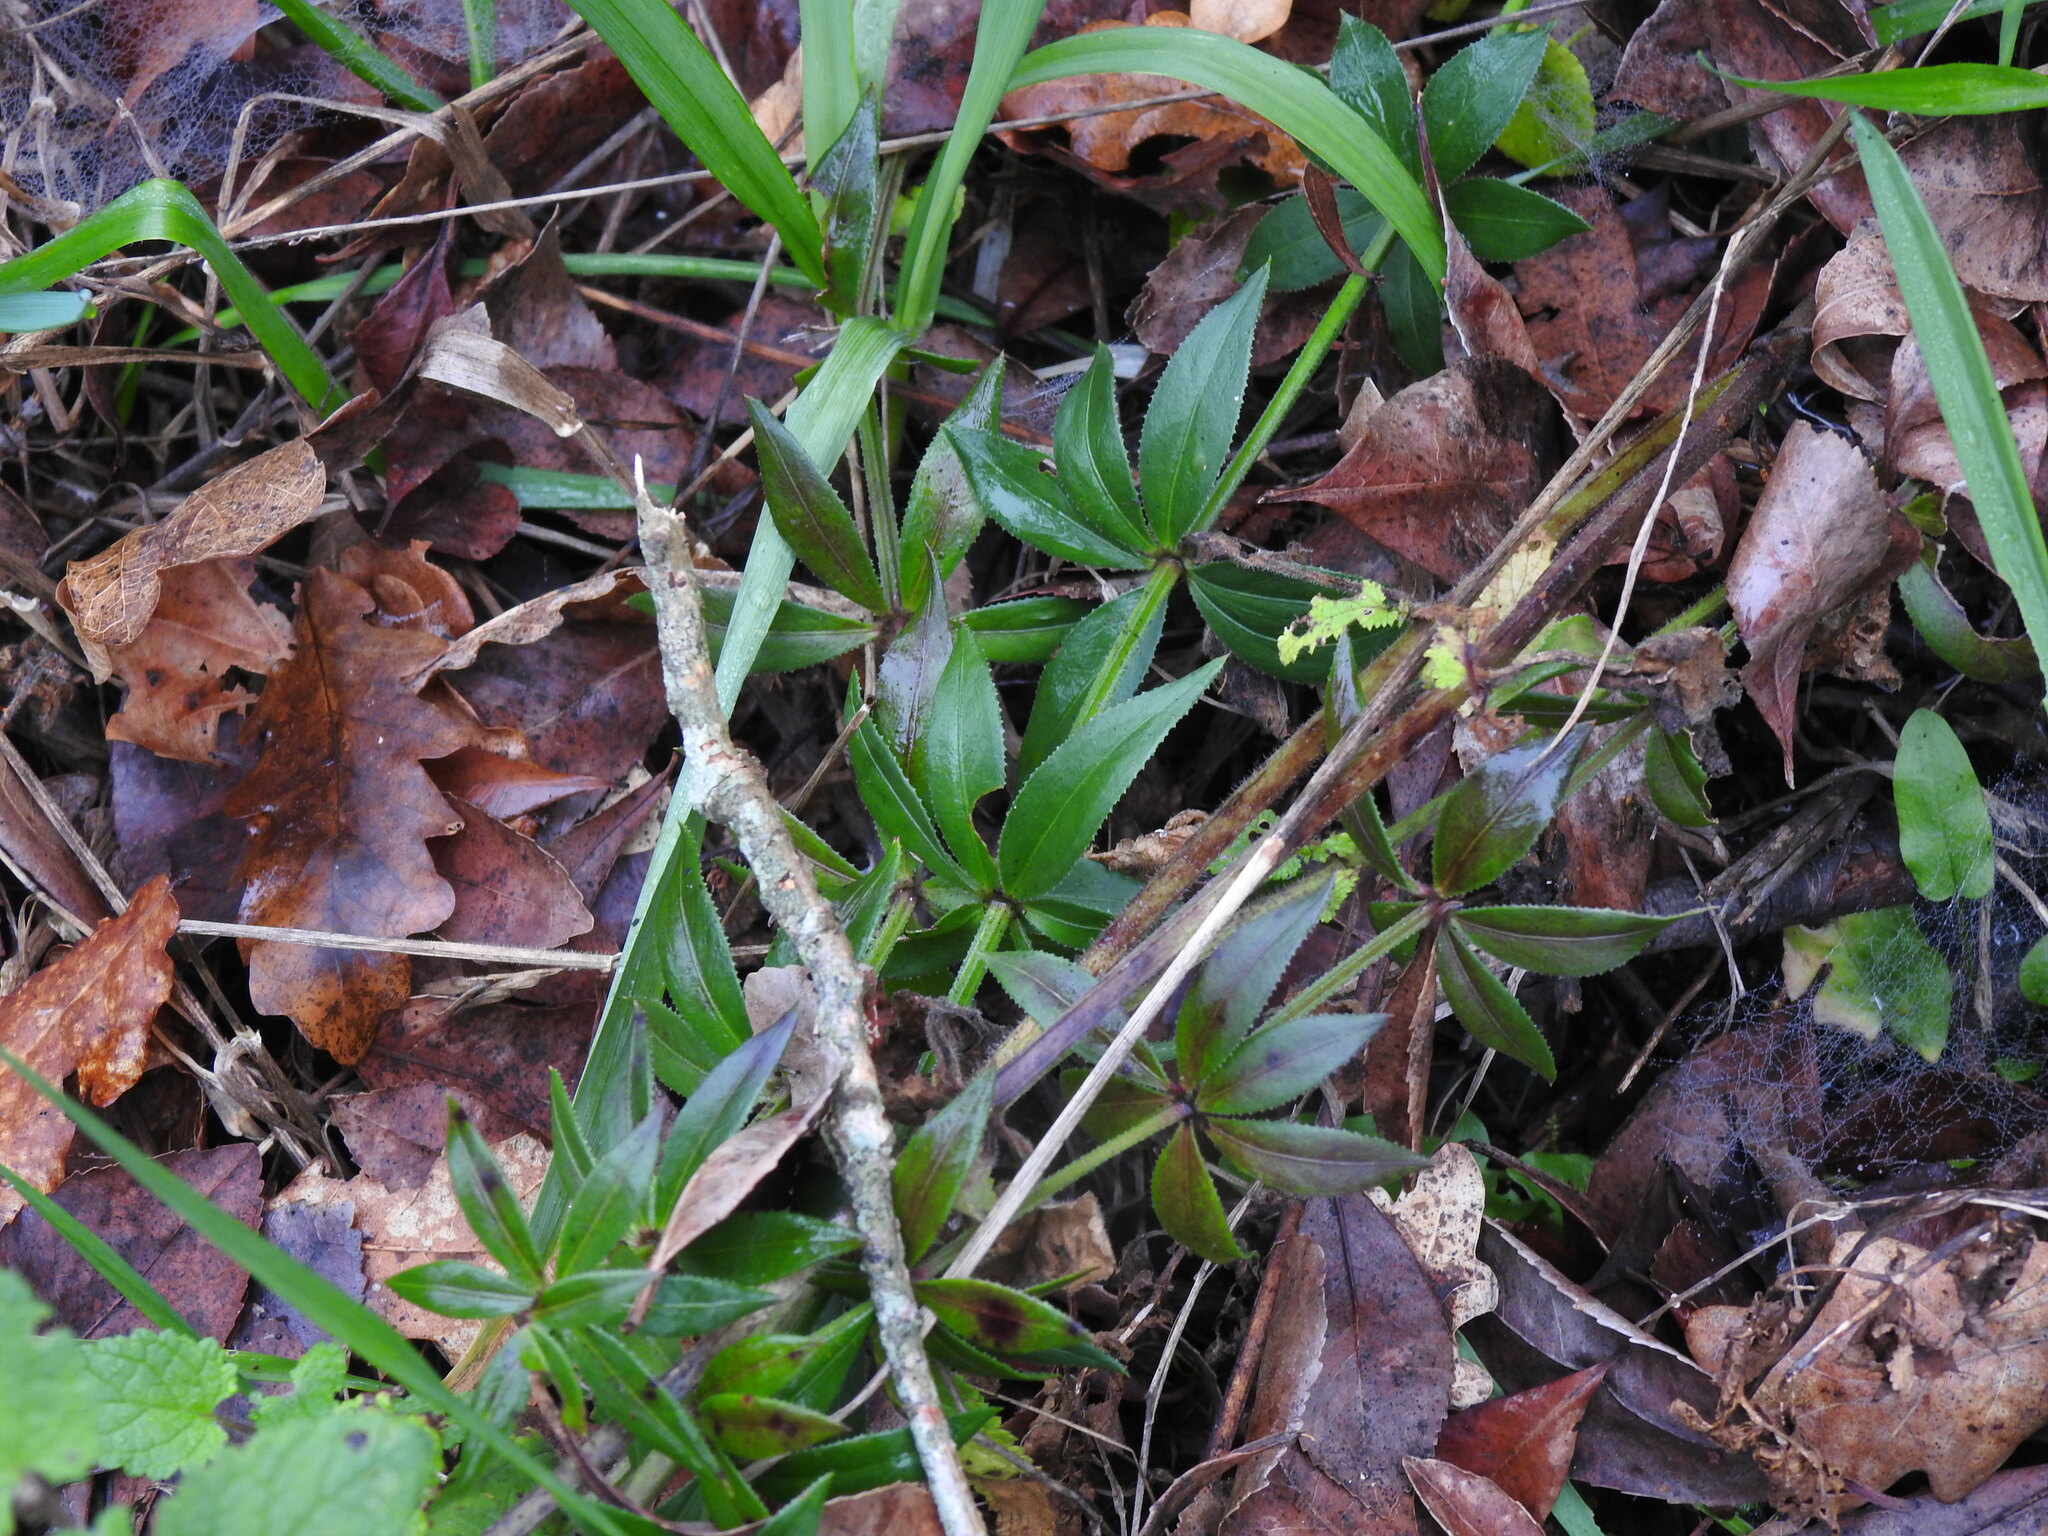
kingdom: Plantae
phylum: Tracheophyta
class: Magnoliopsida
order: Gentianales
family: Rubiaceae
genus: Rubia
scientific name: Rubia peregrina
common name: Wild madder
